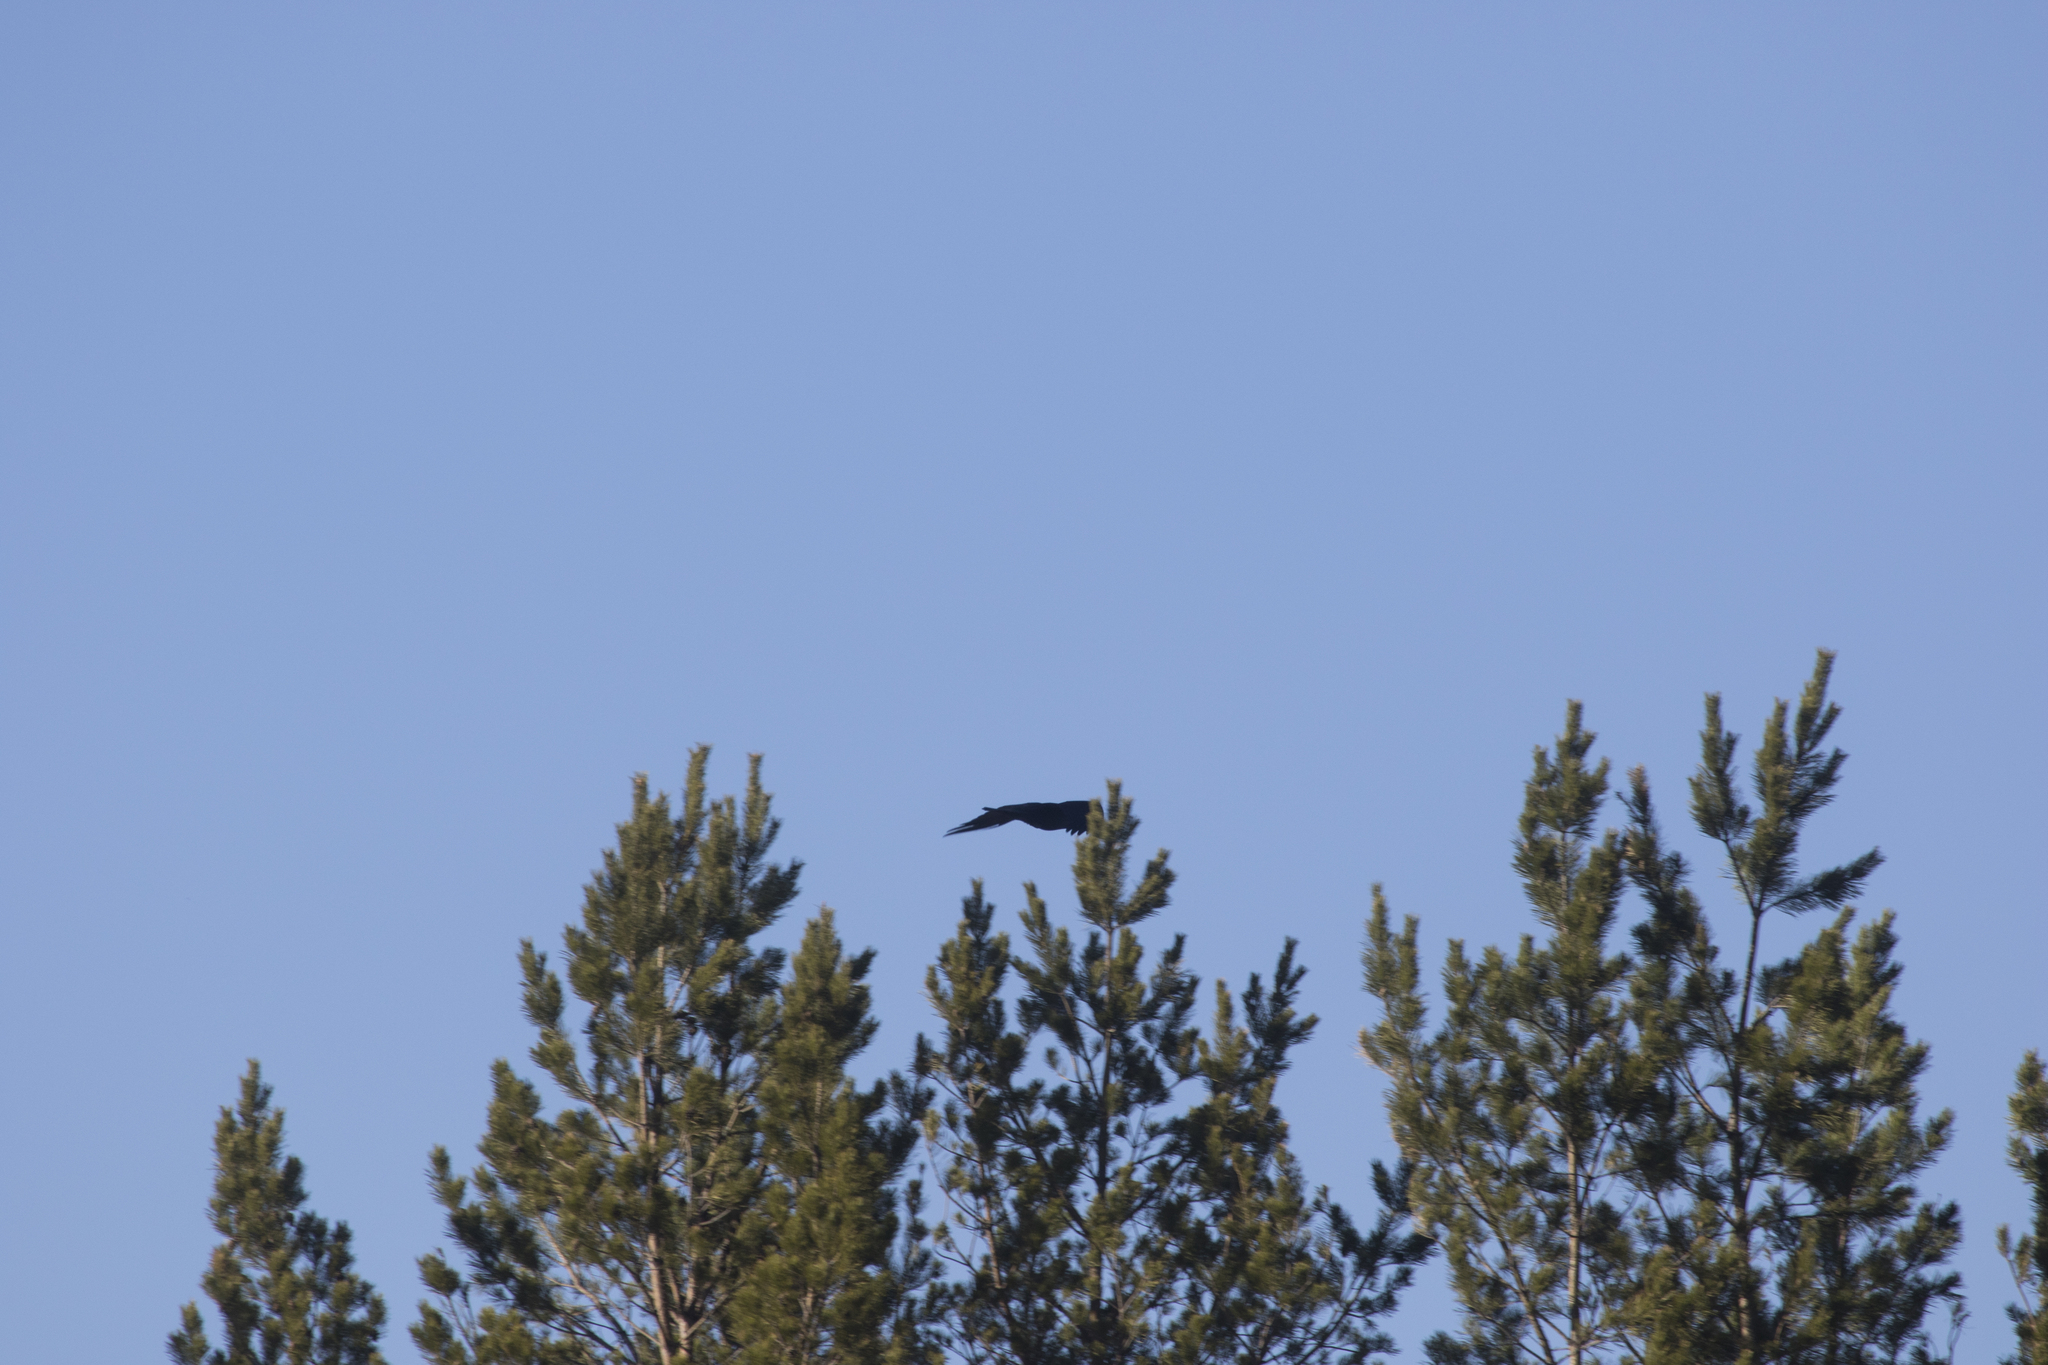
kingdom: Animalia
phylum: Chordata
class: Aves
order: Passeriformes
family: Corvidae
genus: Corvus
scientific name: Corvus corax
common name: Common raven
